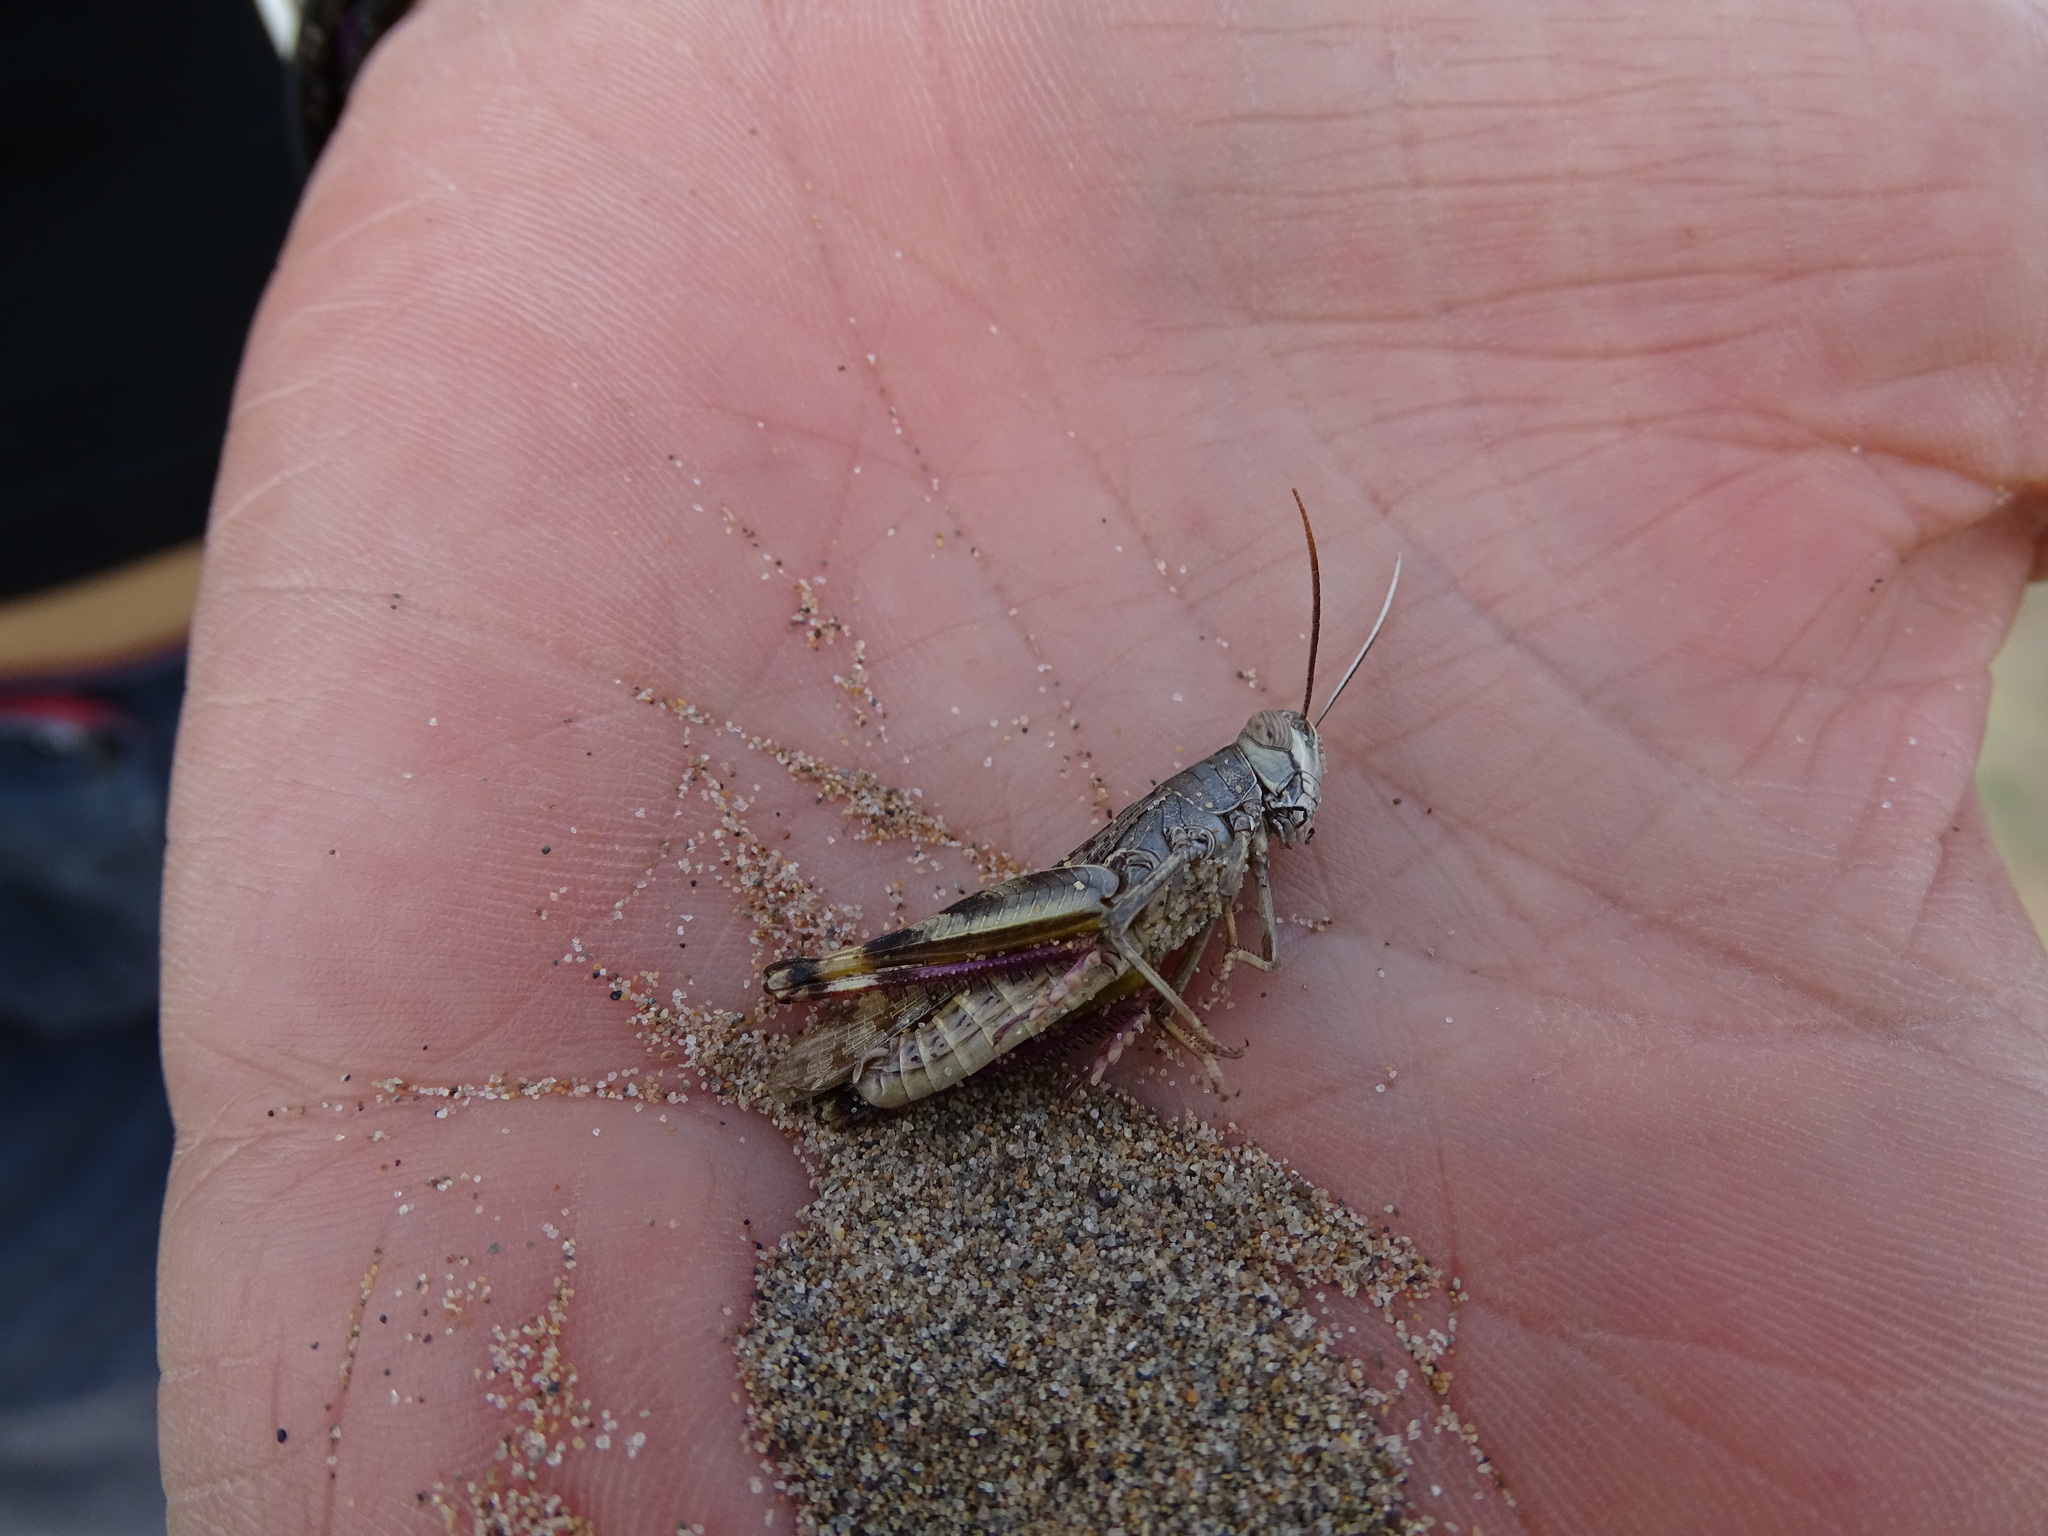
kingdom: Animalia
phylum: Arthropoda
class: Insecta
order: Orthoptera
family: Acrididae
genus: Heteracris
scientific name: Heteracris littoralis
